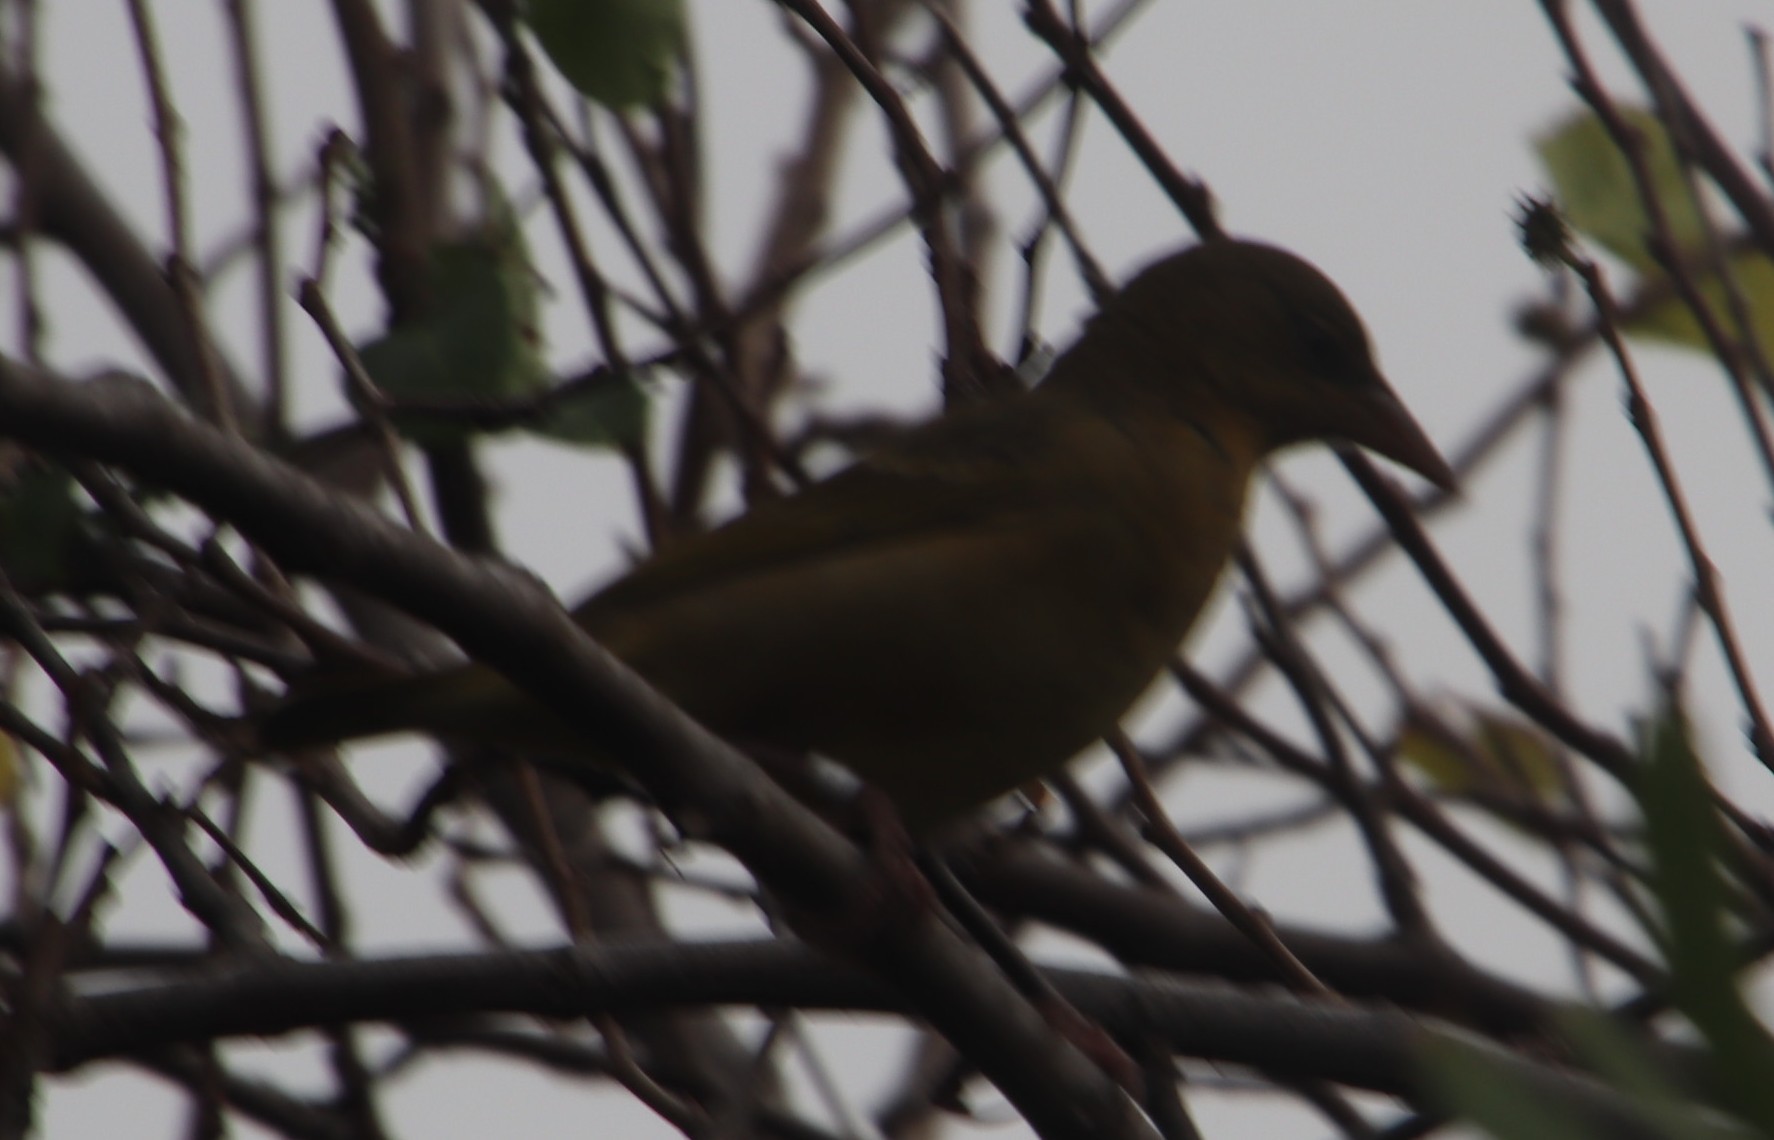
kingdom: Animalia
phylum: Chordata
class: Aves
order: Passeriformes
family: Ploceidae
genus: Ploceus
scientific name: Ploceus capensis
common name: Cape weaver
